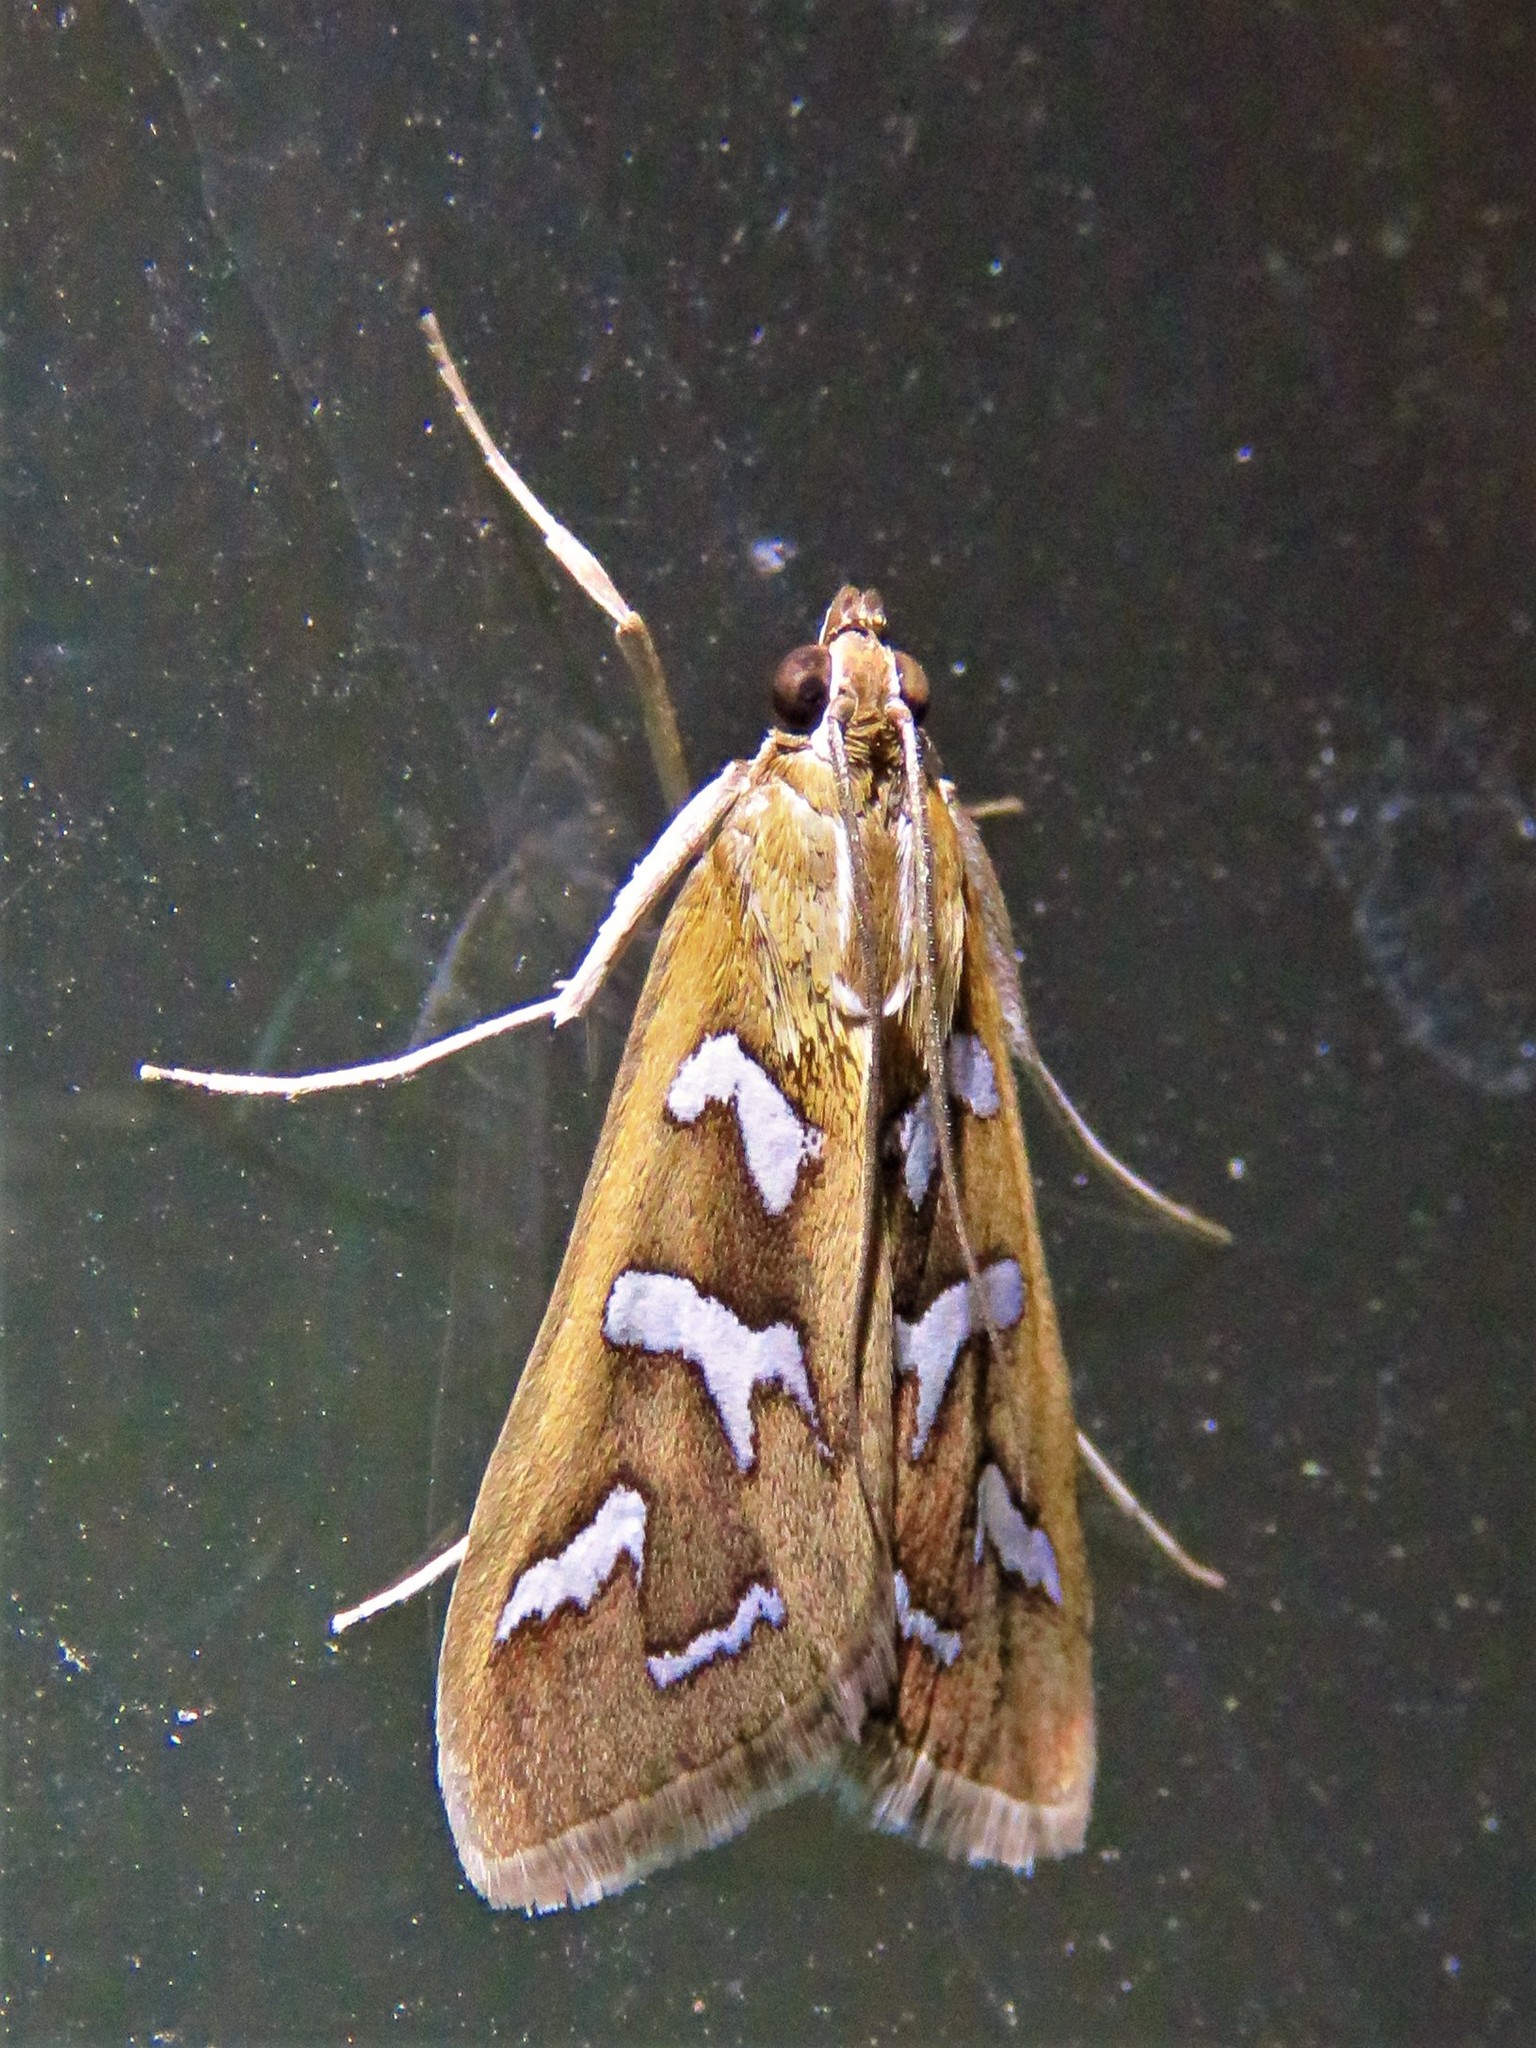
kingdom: Animalia
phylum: Arthropoda
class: Insecta
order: Lepidoptera
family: Crambidae
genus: Diastictis
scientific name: Diastictis fracturalis
